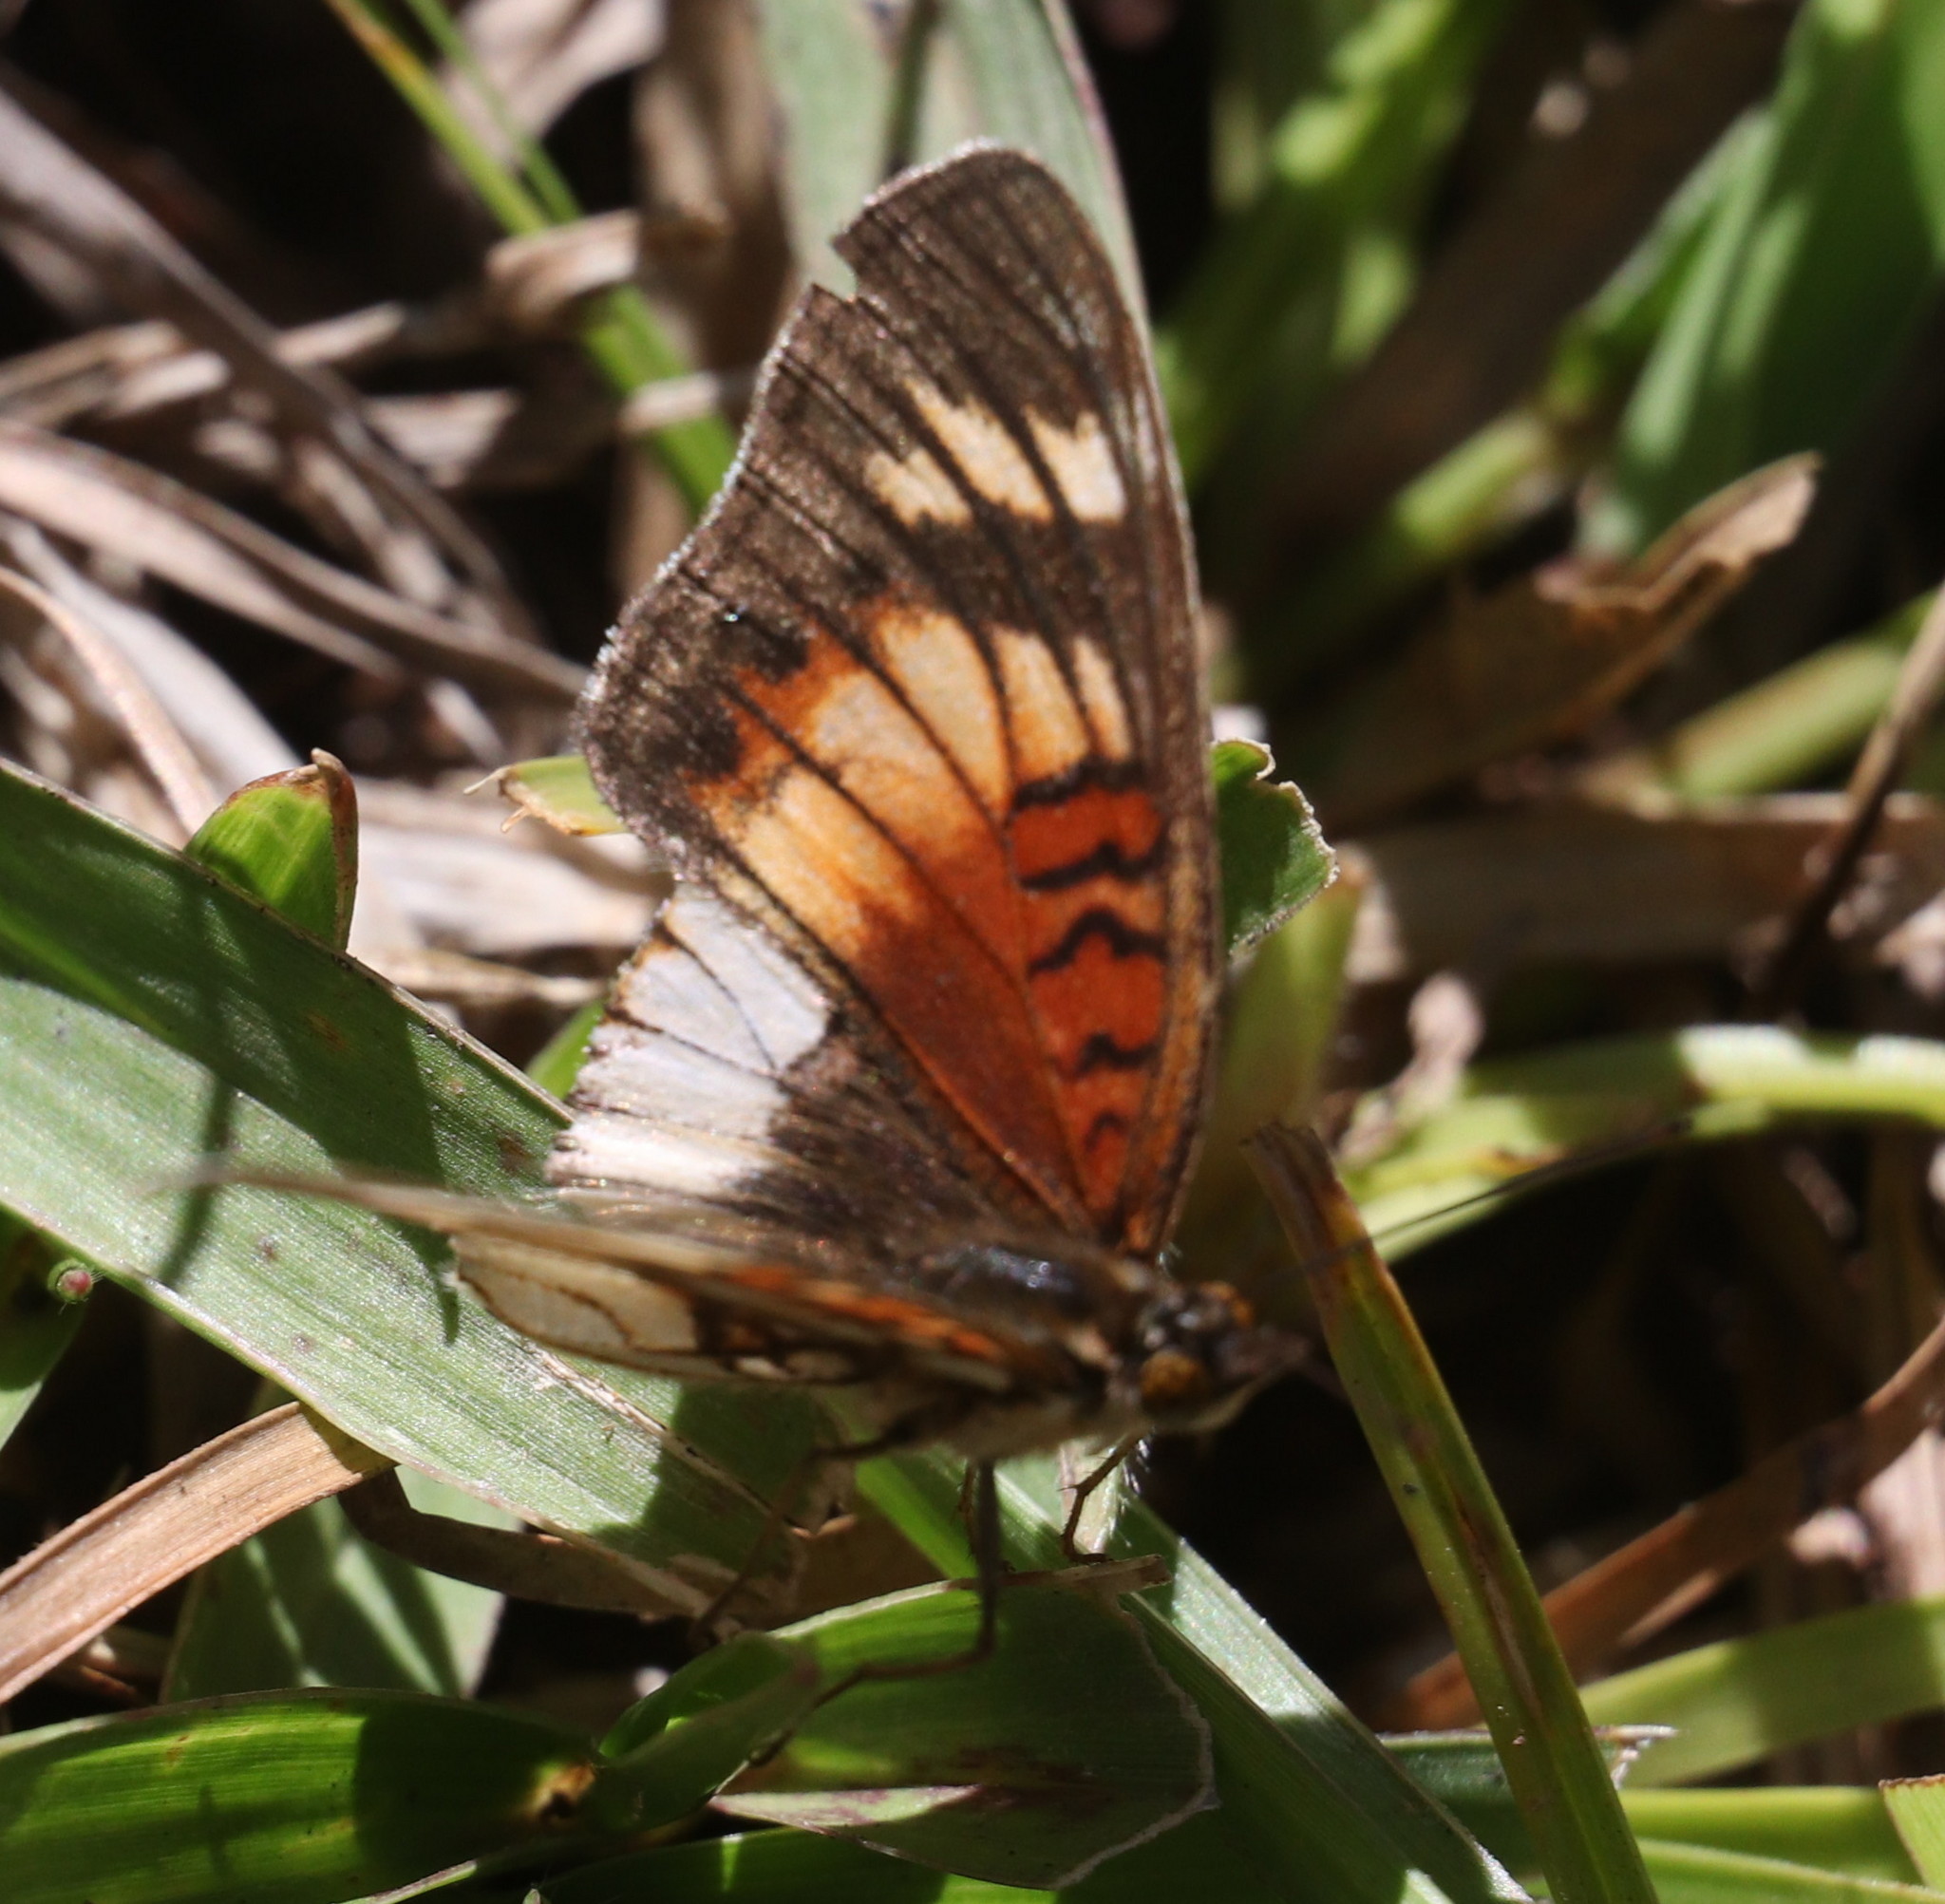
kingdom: Animalia
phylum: Arthropoda
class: Insecta
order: Lepidoptera
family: Nymphalidae
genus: Junonia
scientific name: Junonia sophia
